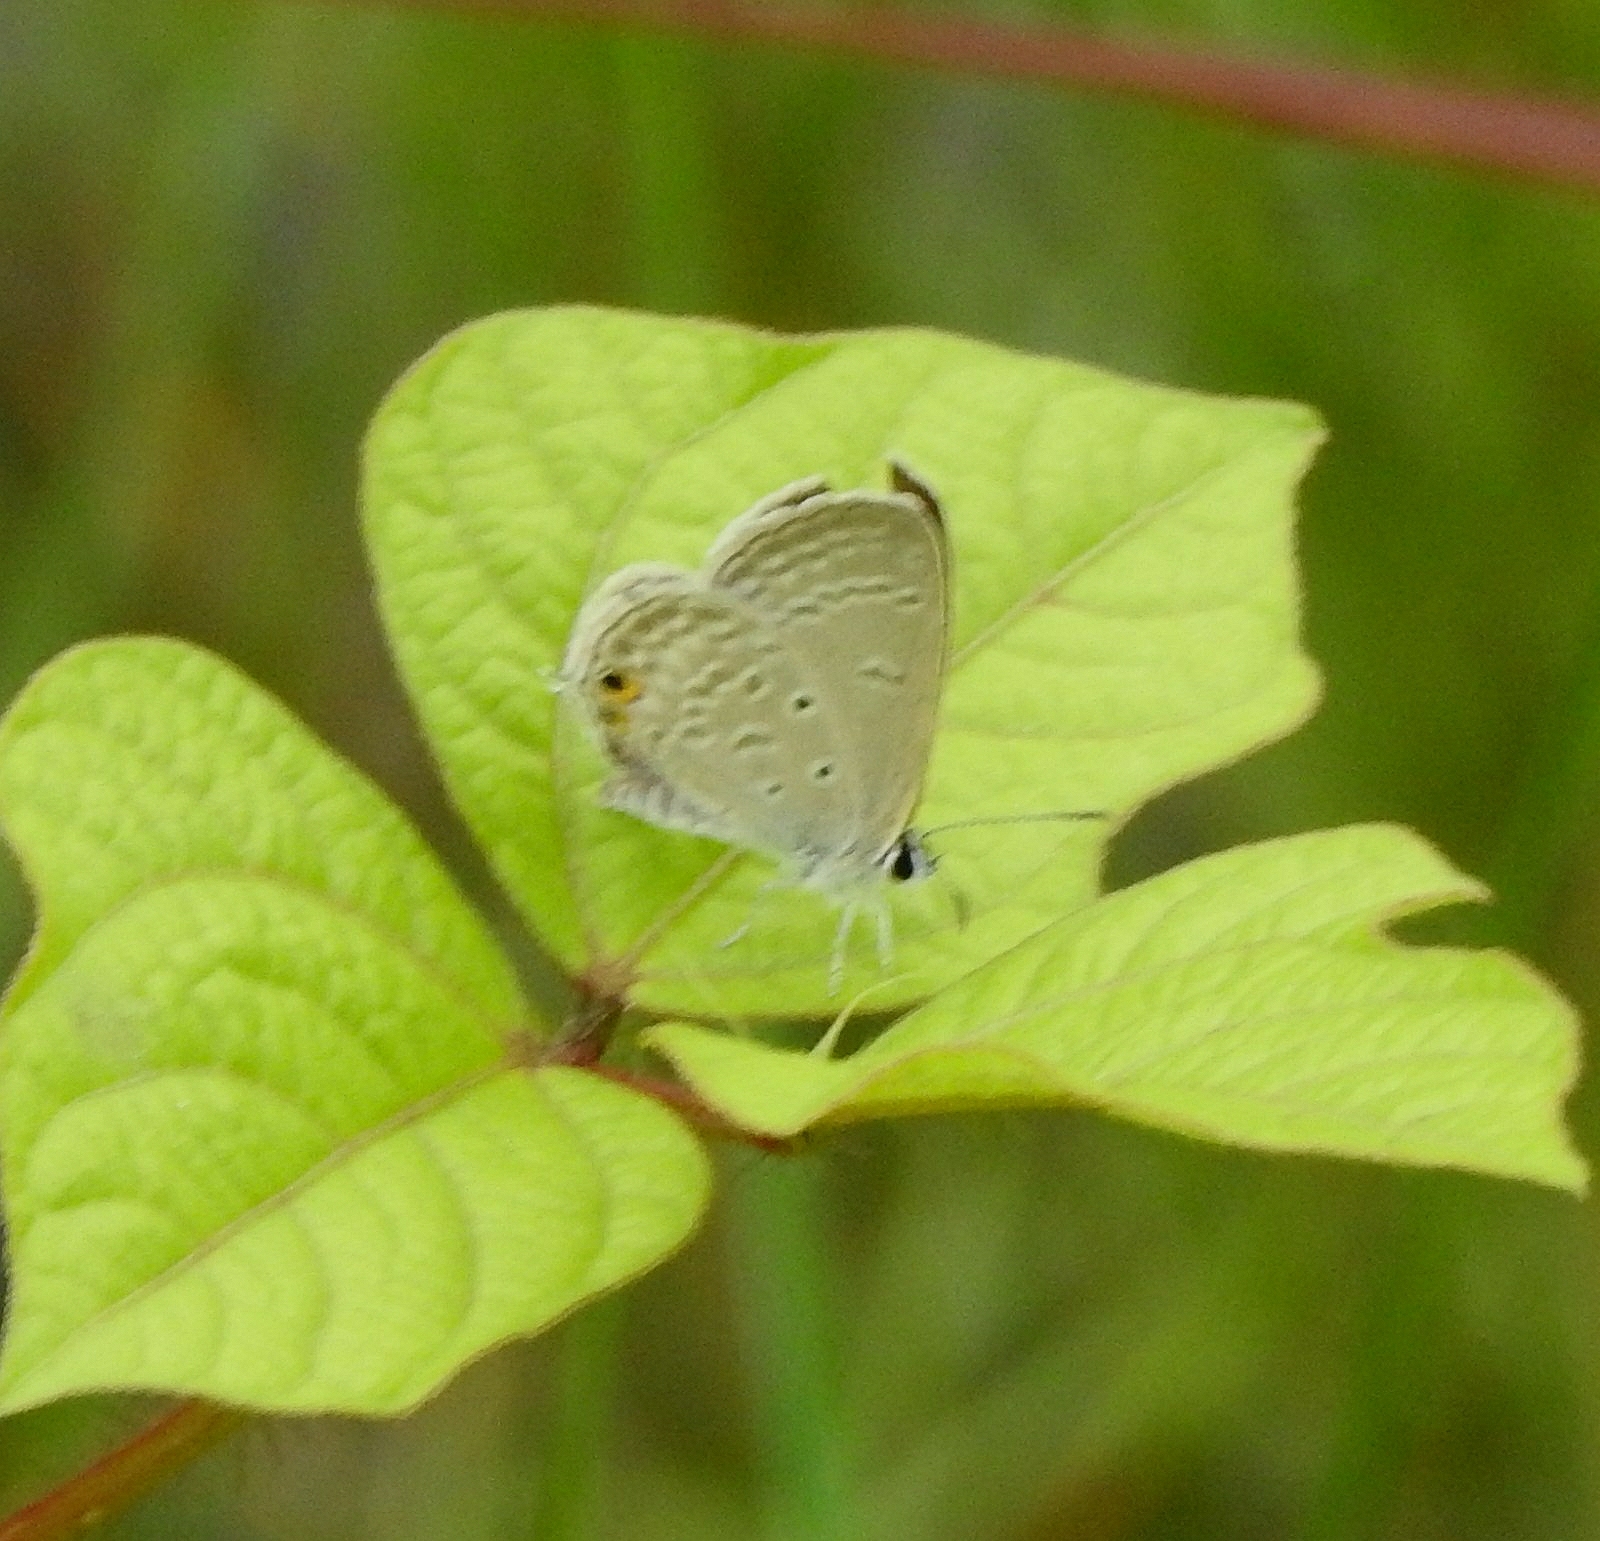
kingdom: Animalia
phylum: Arthropoda
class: Insecta
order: Lepidoptera
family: Lycaenidae
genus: Euchrysops
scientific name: Euchrysops cnejus
